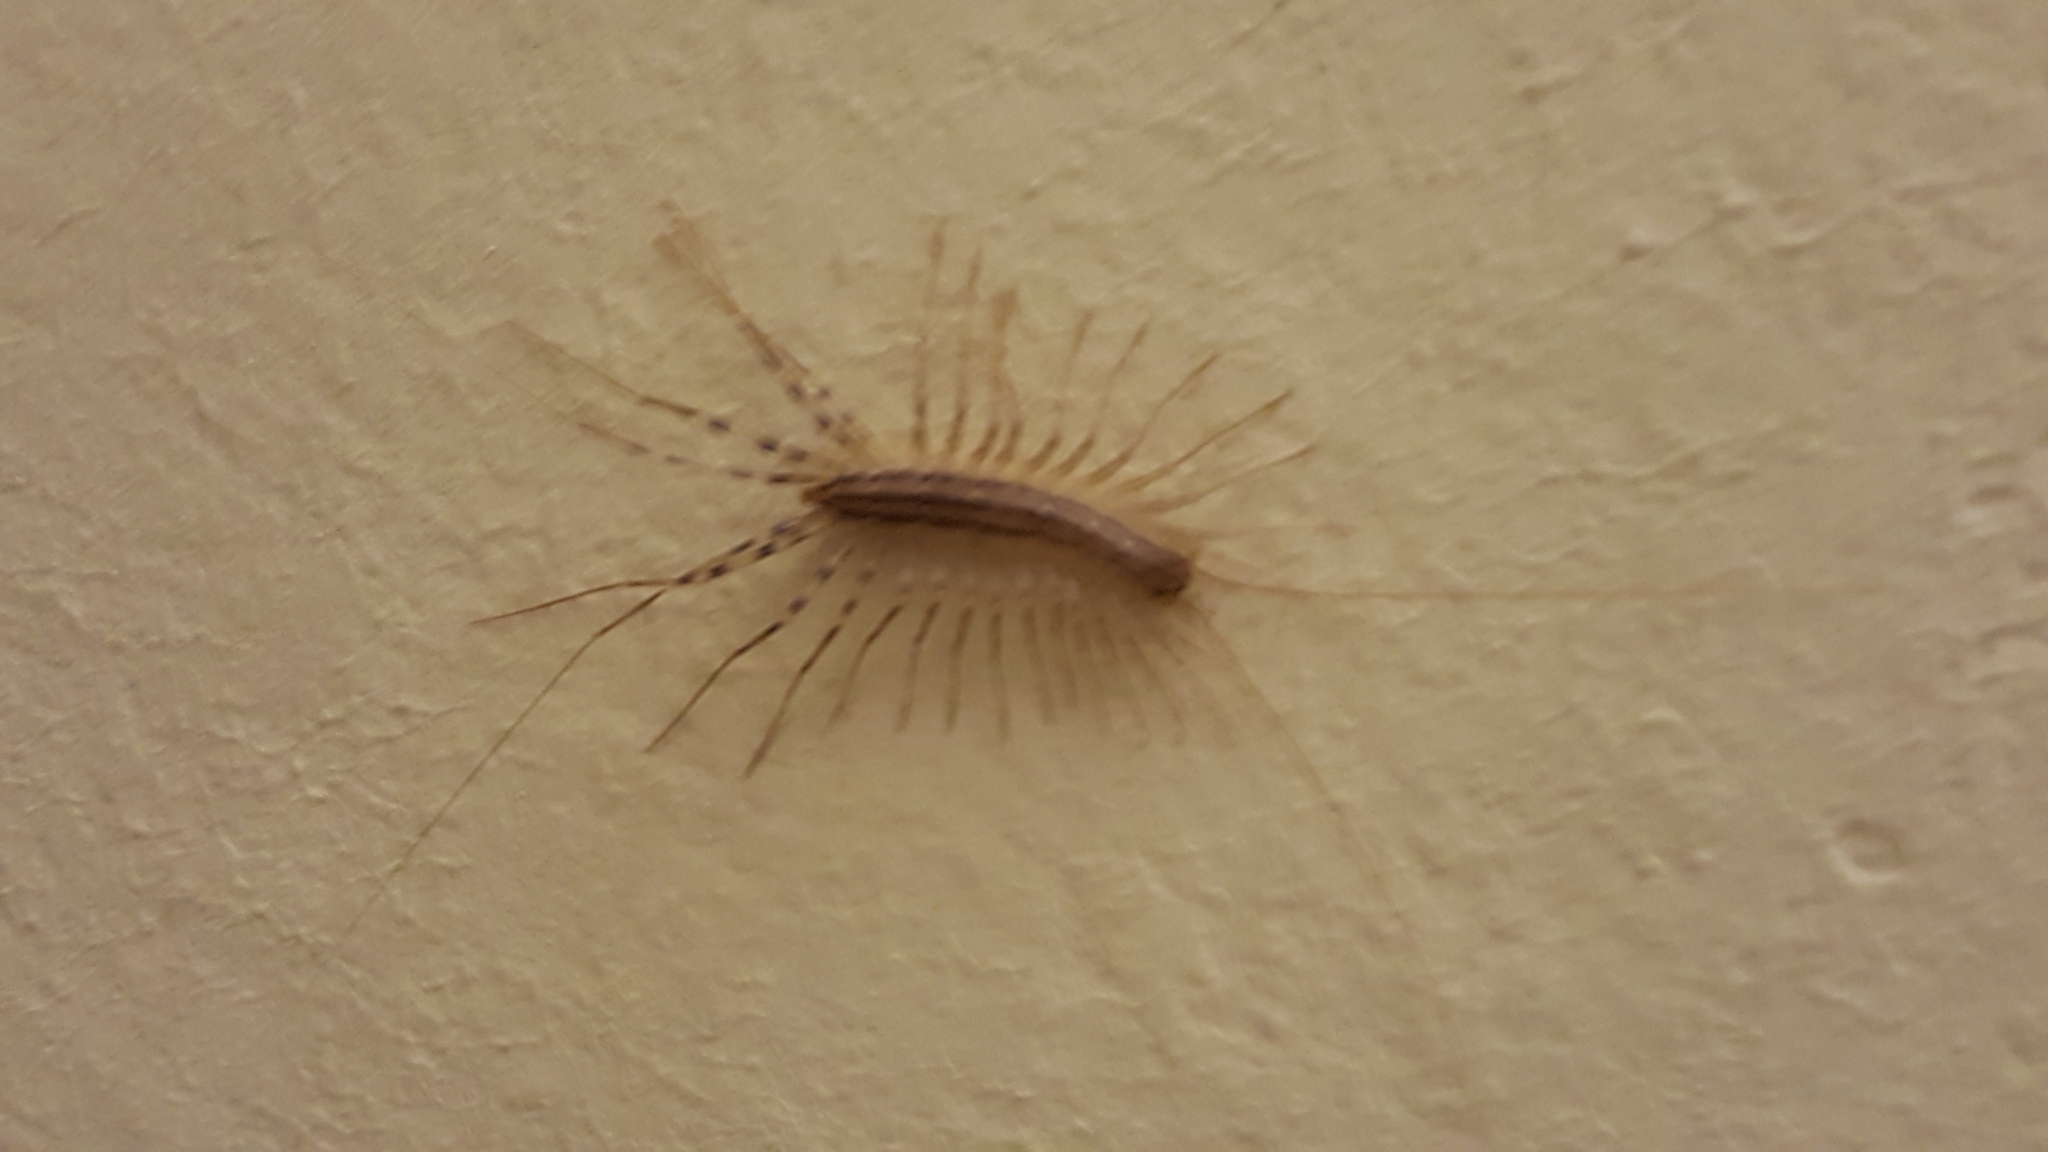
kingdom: Animalia
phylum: Arthropoda
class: Chilopoda
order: Scutigeromorpha
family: Scutigeridae
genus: Scutigera
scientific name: Scutigera coleoptrata
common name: House centipede
